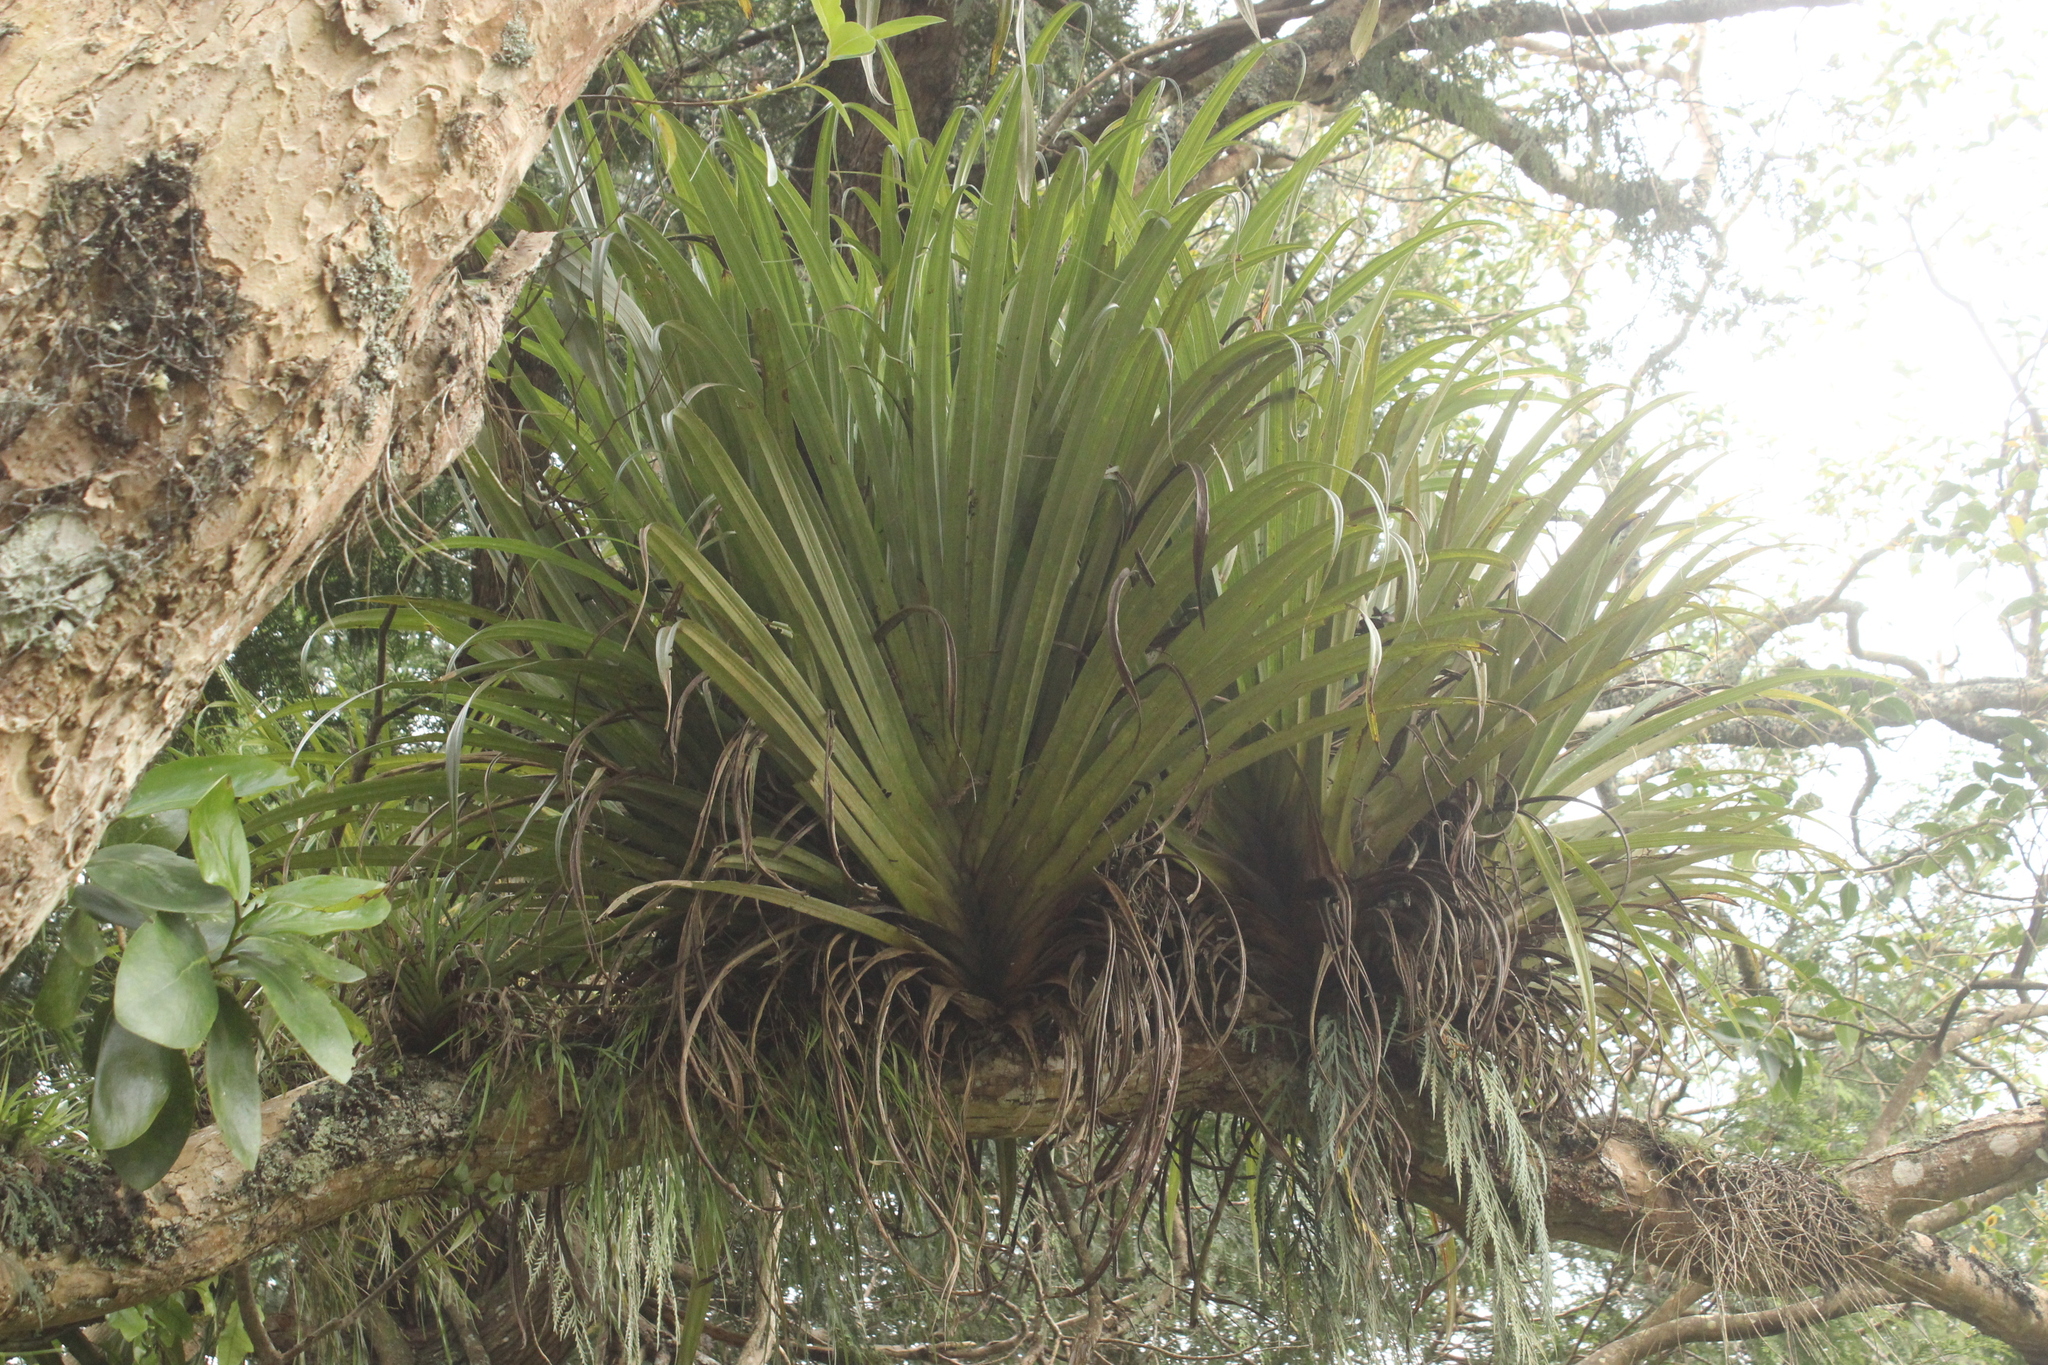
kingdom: Plantae
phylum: Tracheophyta
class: Liliopsida
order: Asparagales
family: Asteliaceae
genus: Astelia
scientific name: Astelia hastata
